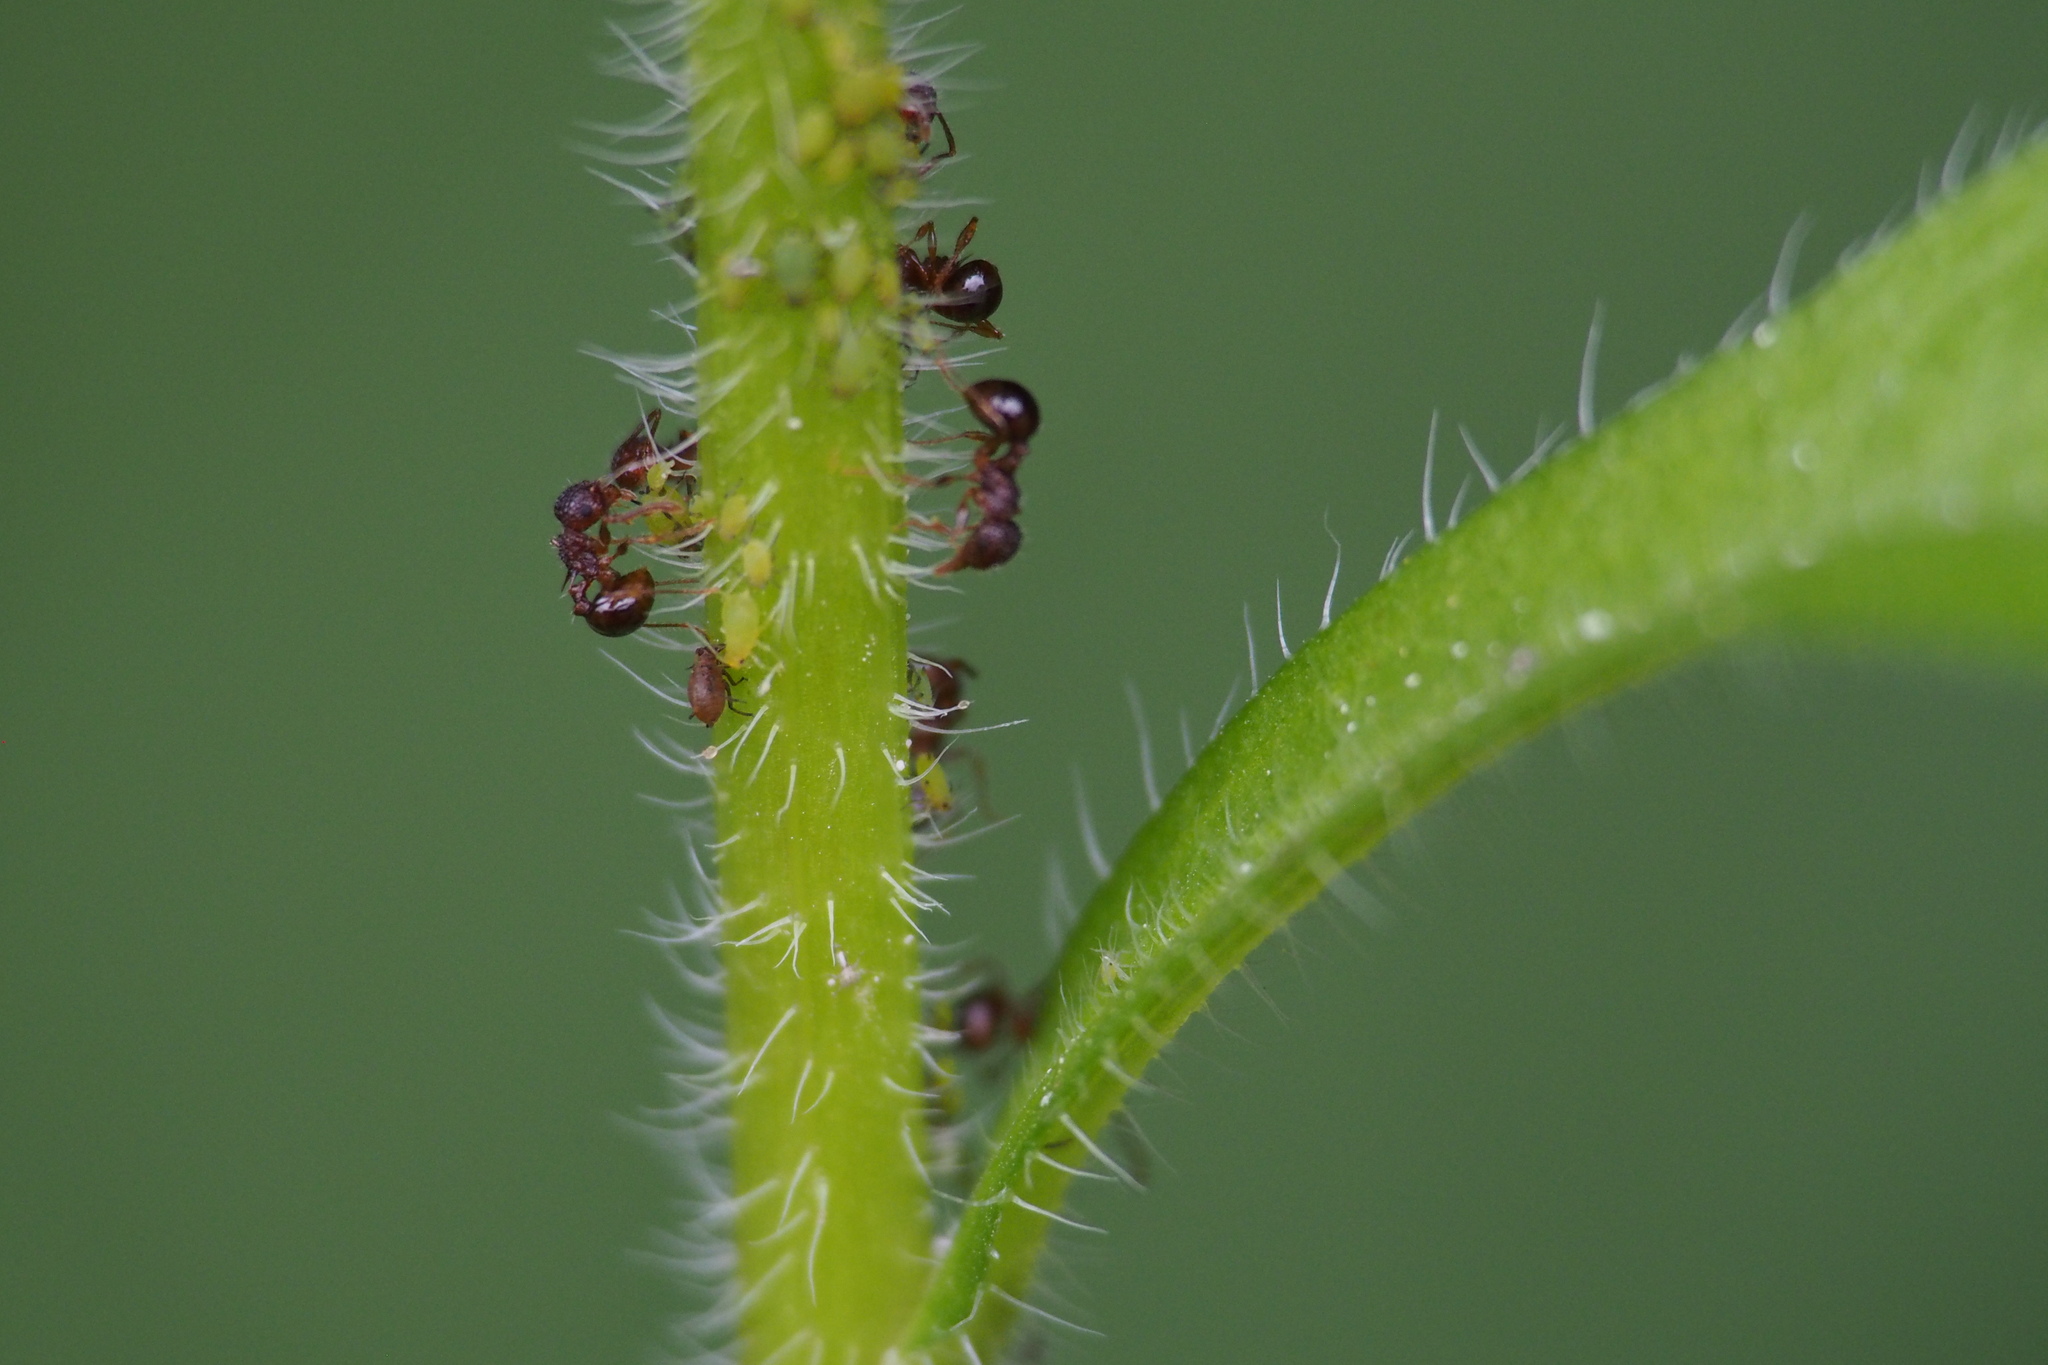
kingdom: Animalia
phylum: Arthropoda
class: Insecta
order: Hymenoptera
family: Formicidae
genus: Pristomyrmex
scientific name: Pristomyrmex punctatus
